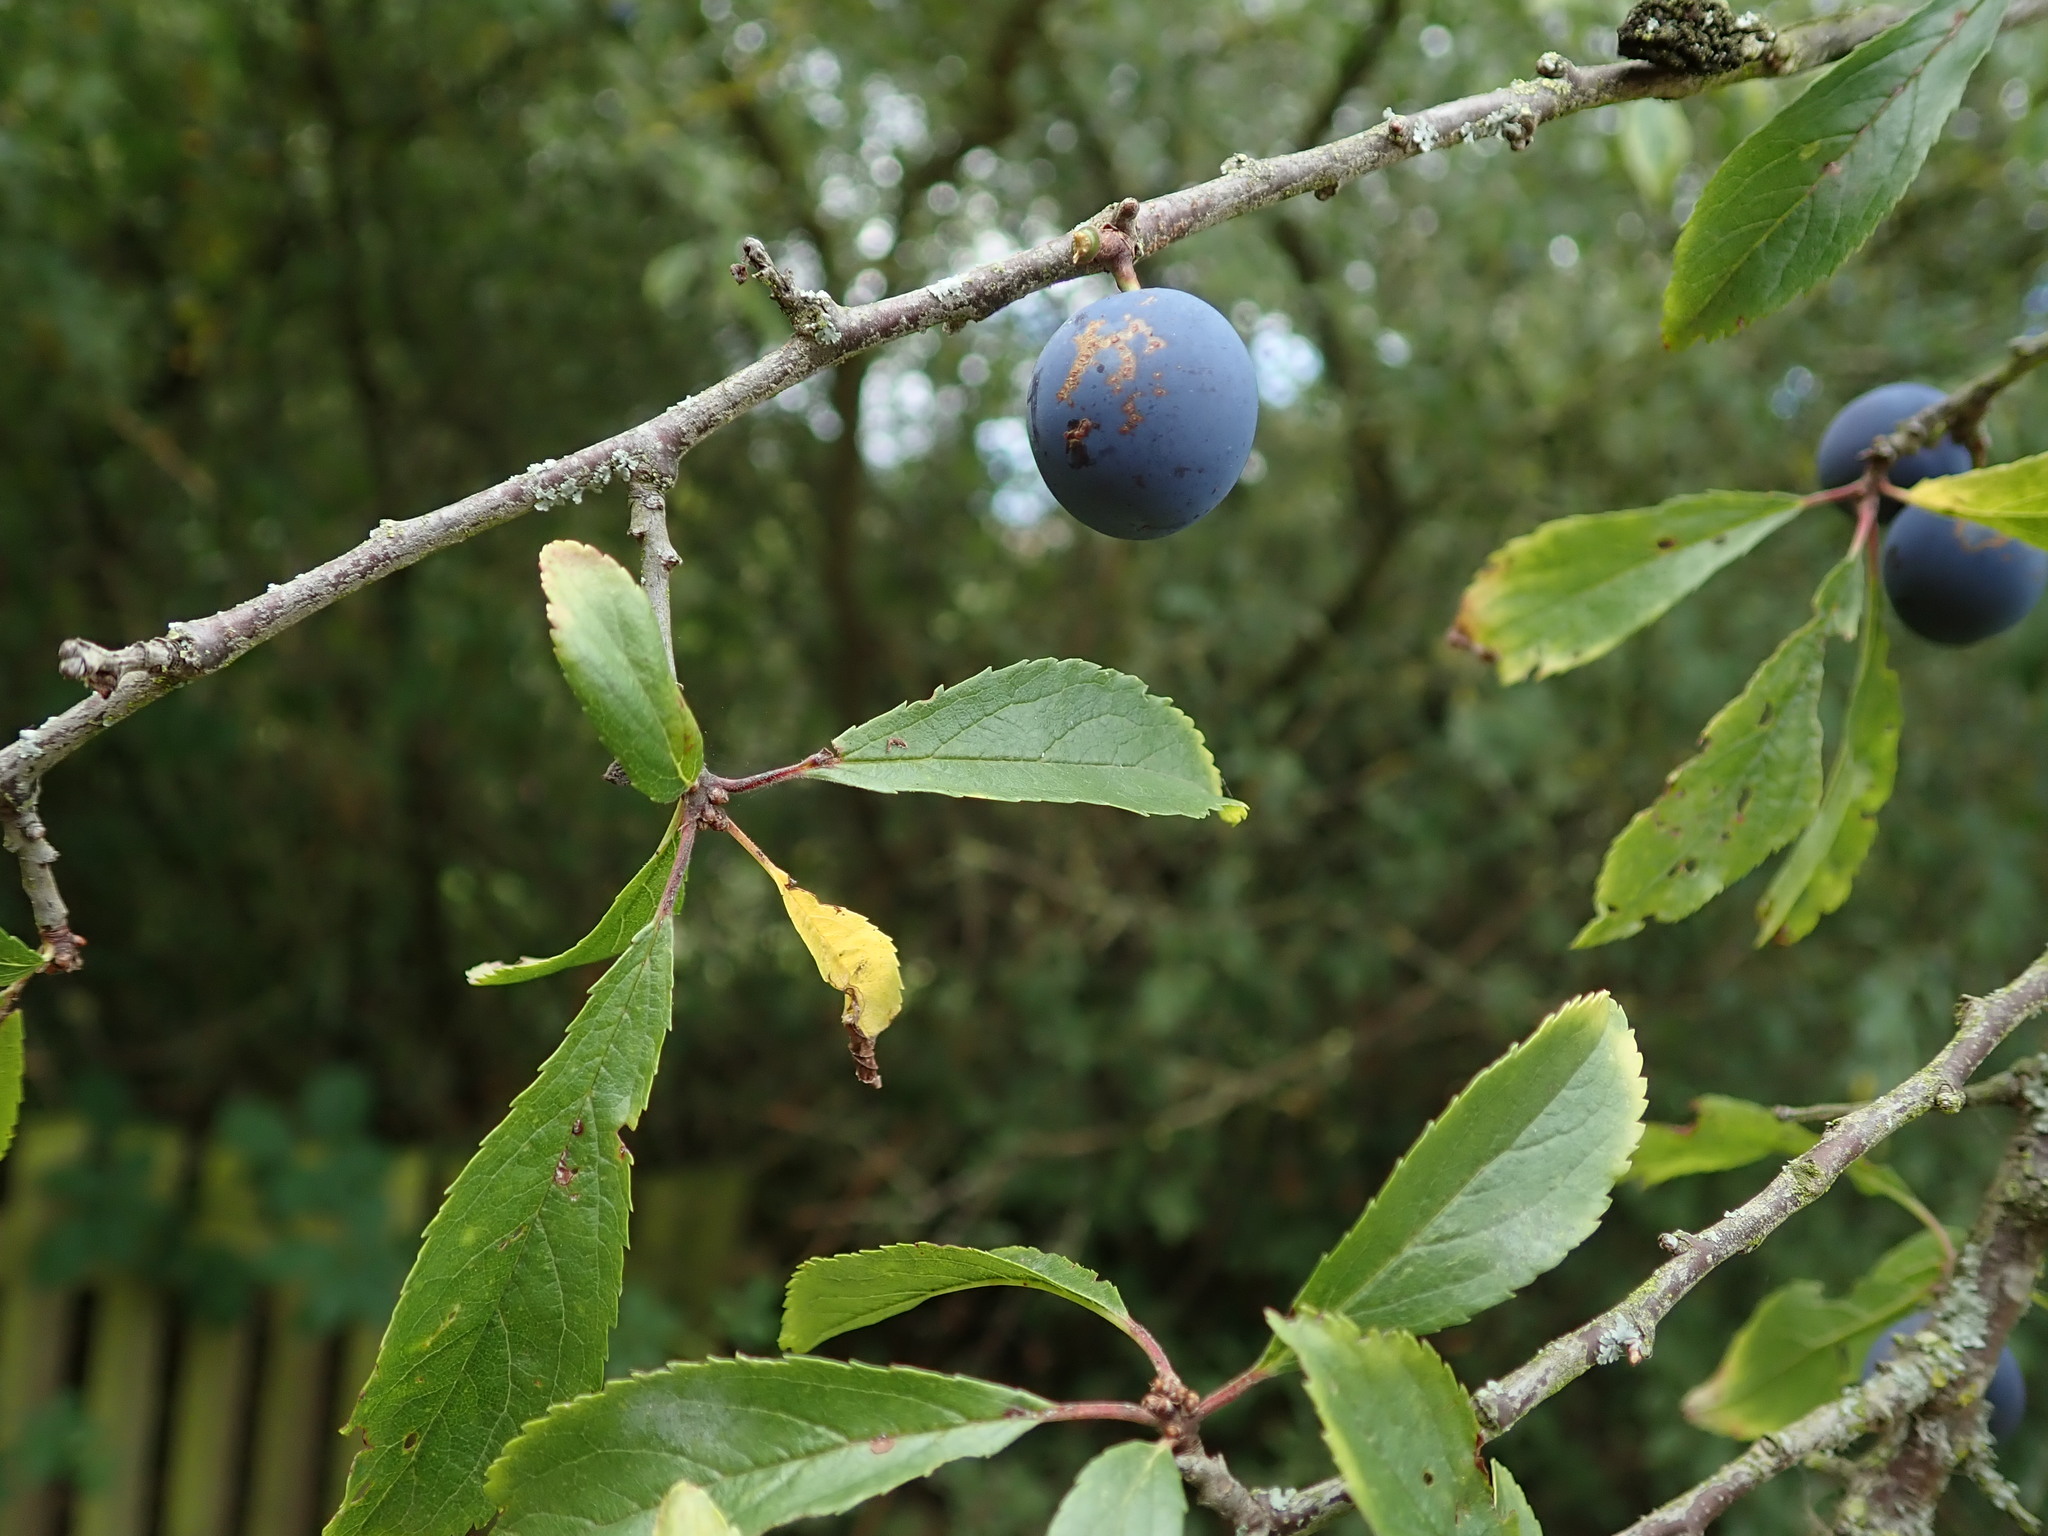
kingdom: Plantae
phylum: Tracheophyta
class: Magnoliopsida
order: Rosales
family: Rosaceae
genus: Prunus
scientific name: Prunus spinosa
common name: Blackthorn
